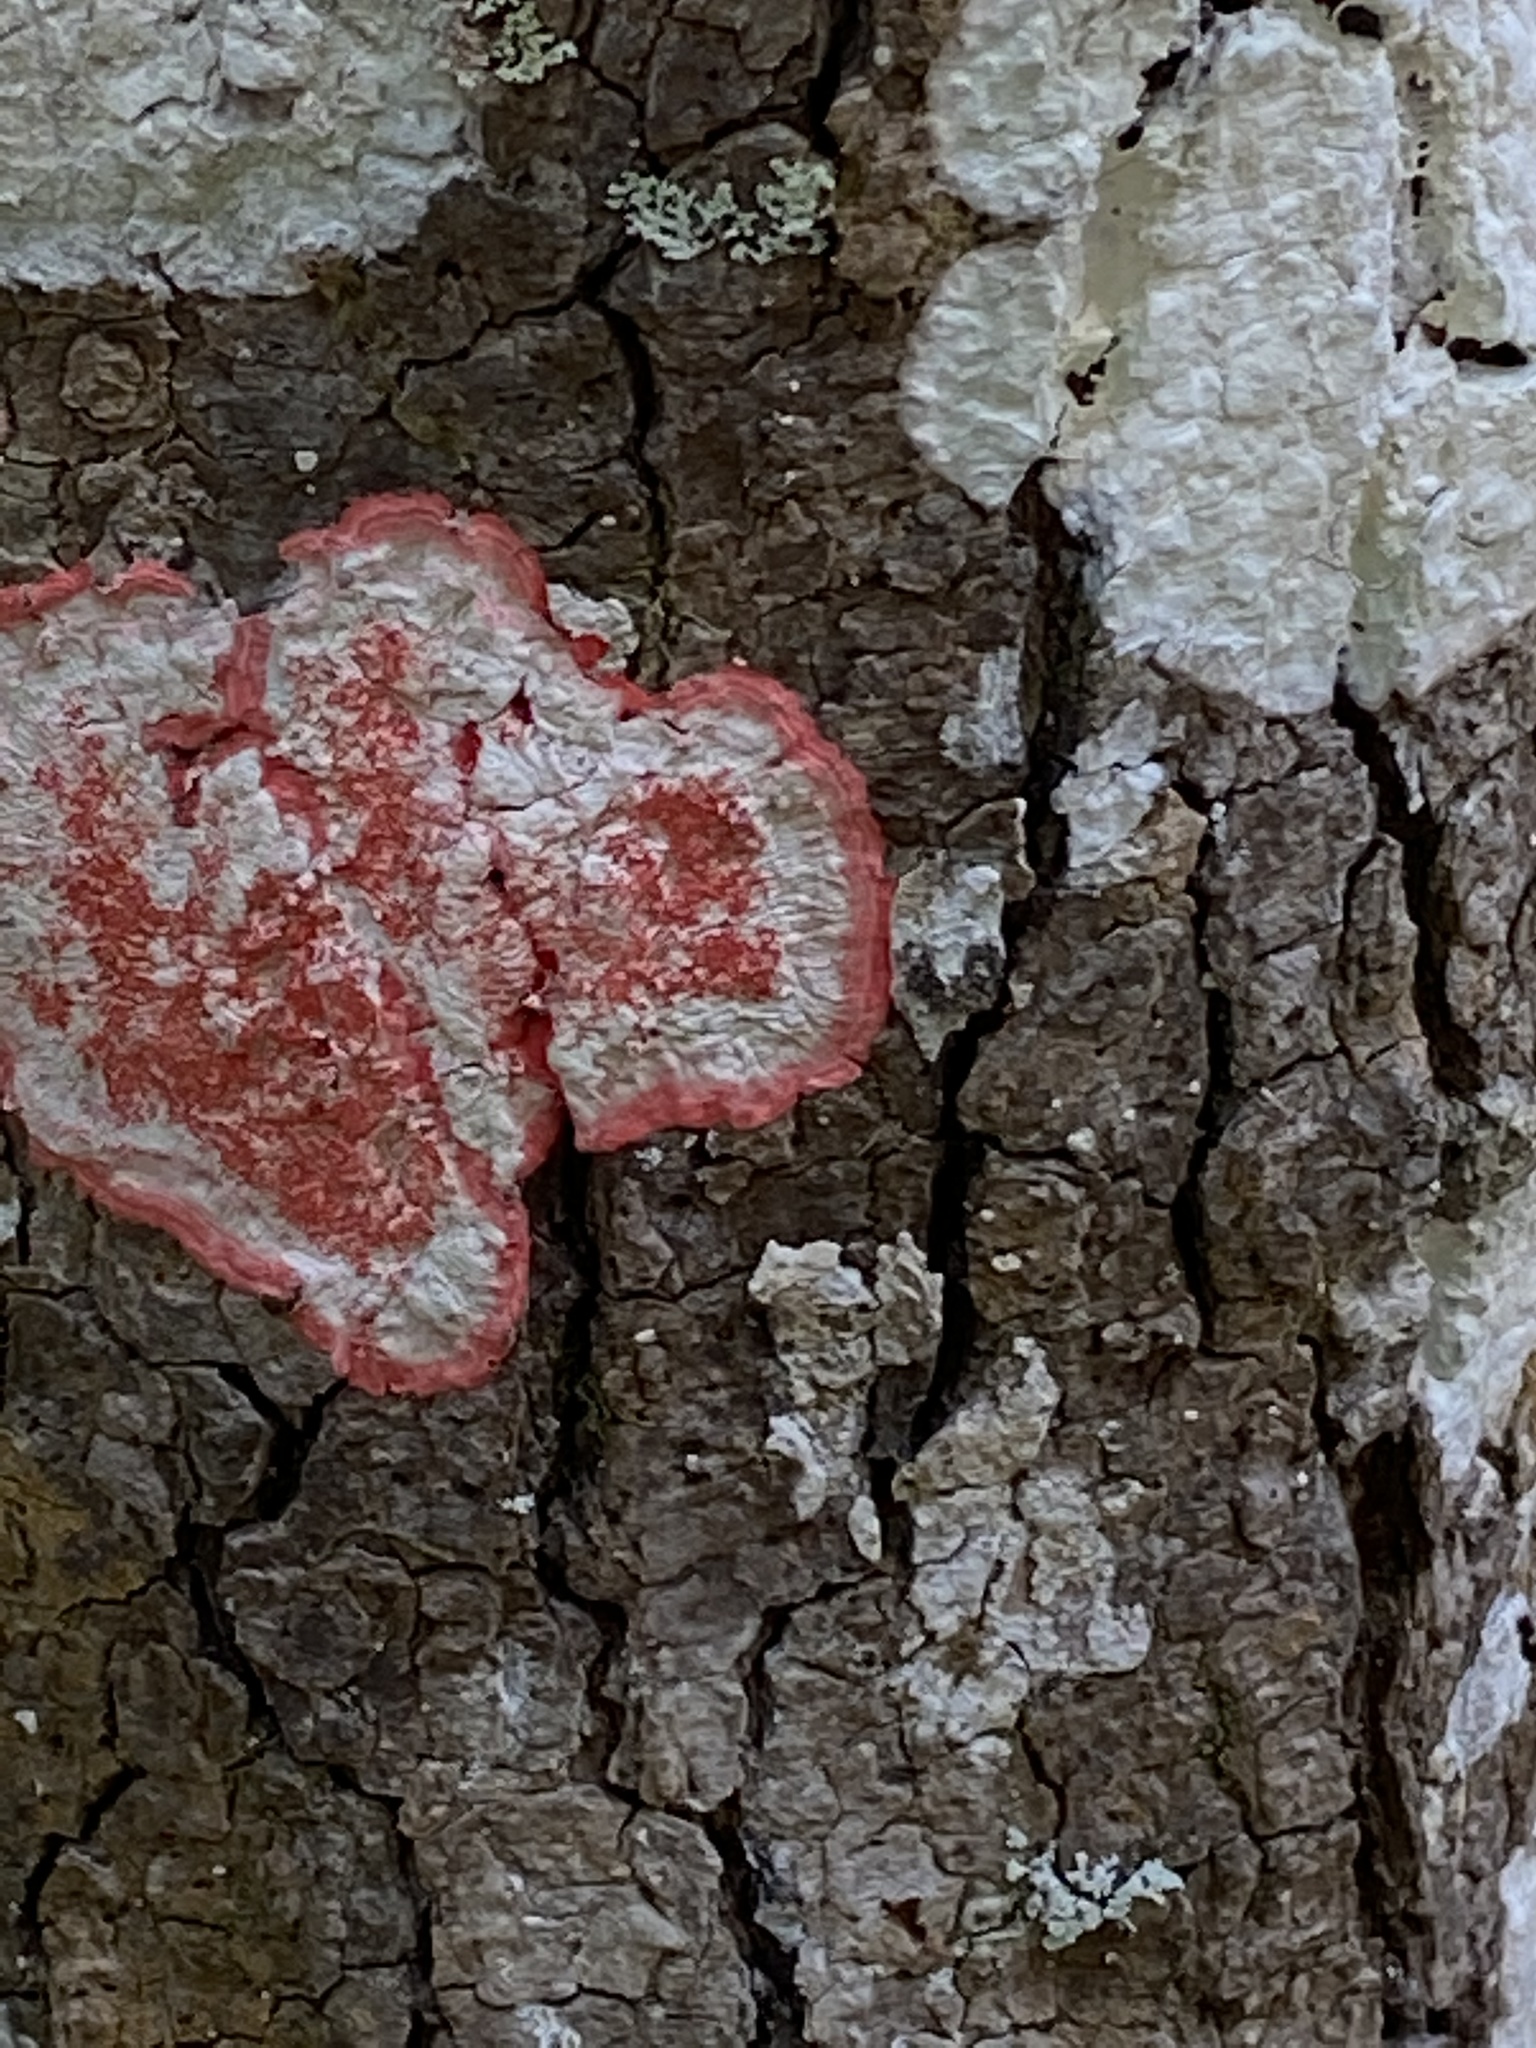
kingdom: Fungi
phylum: Ascomycota
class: Arthoniomycetes
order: Arthoniales
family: Arthoniaceae
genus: Herpothallon
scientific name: Herpothallon rubrocinctum
